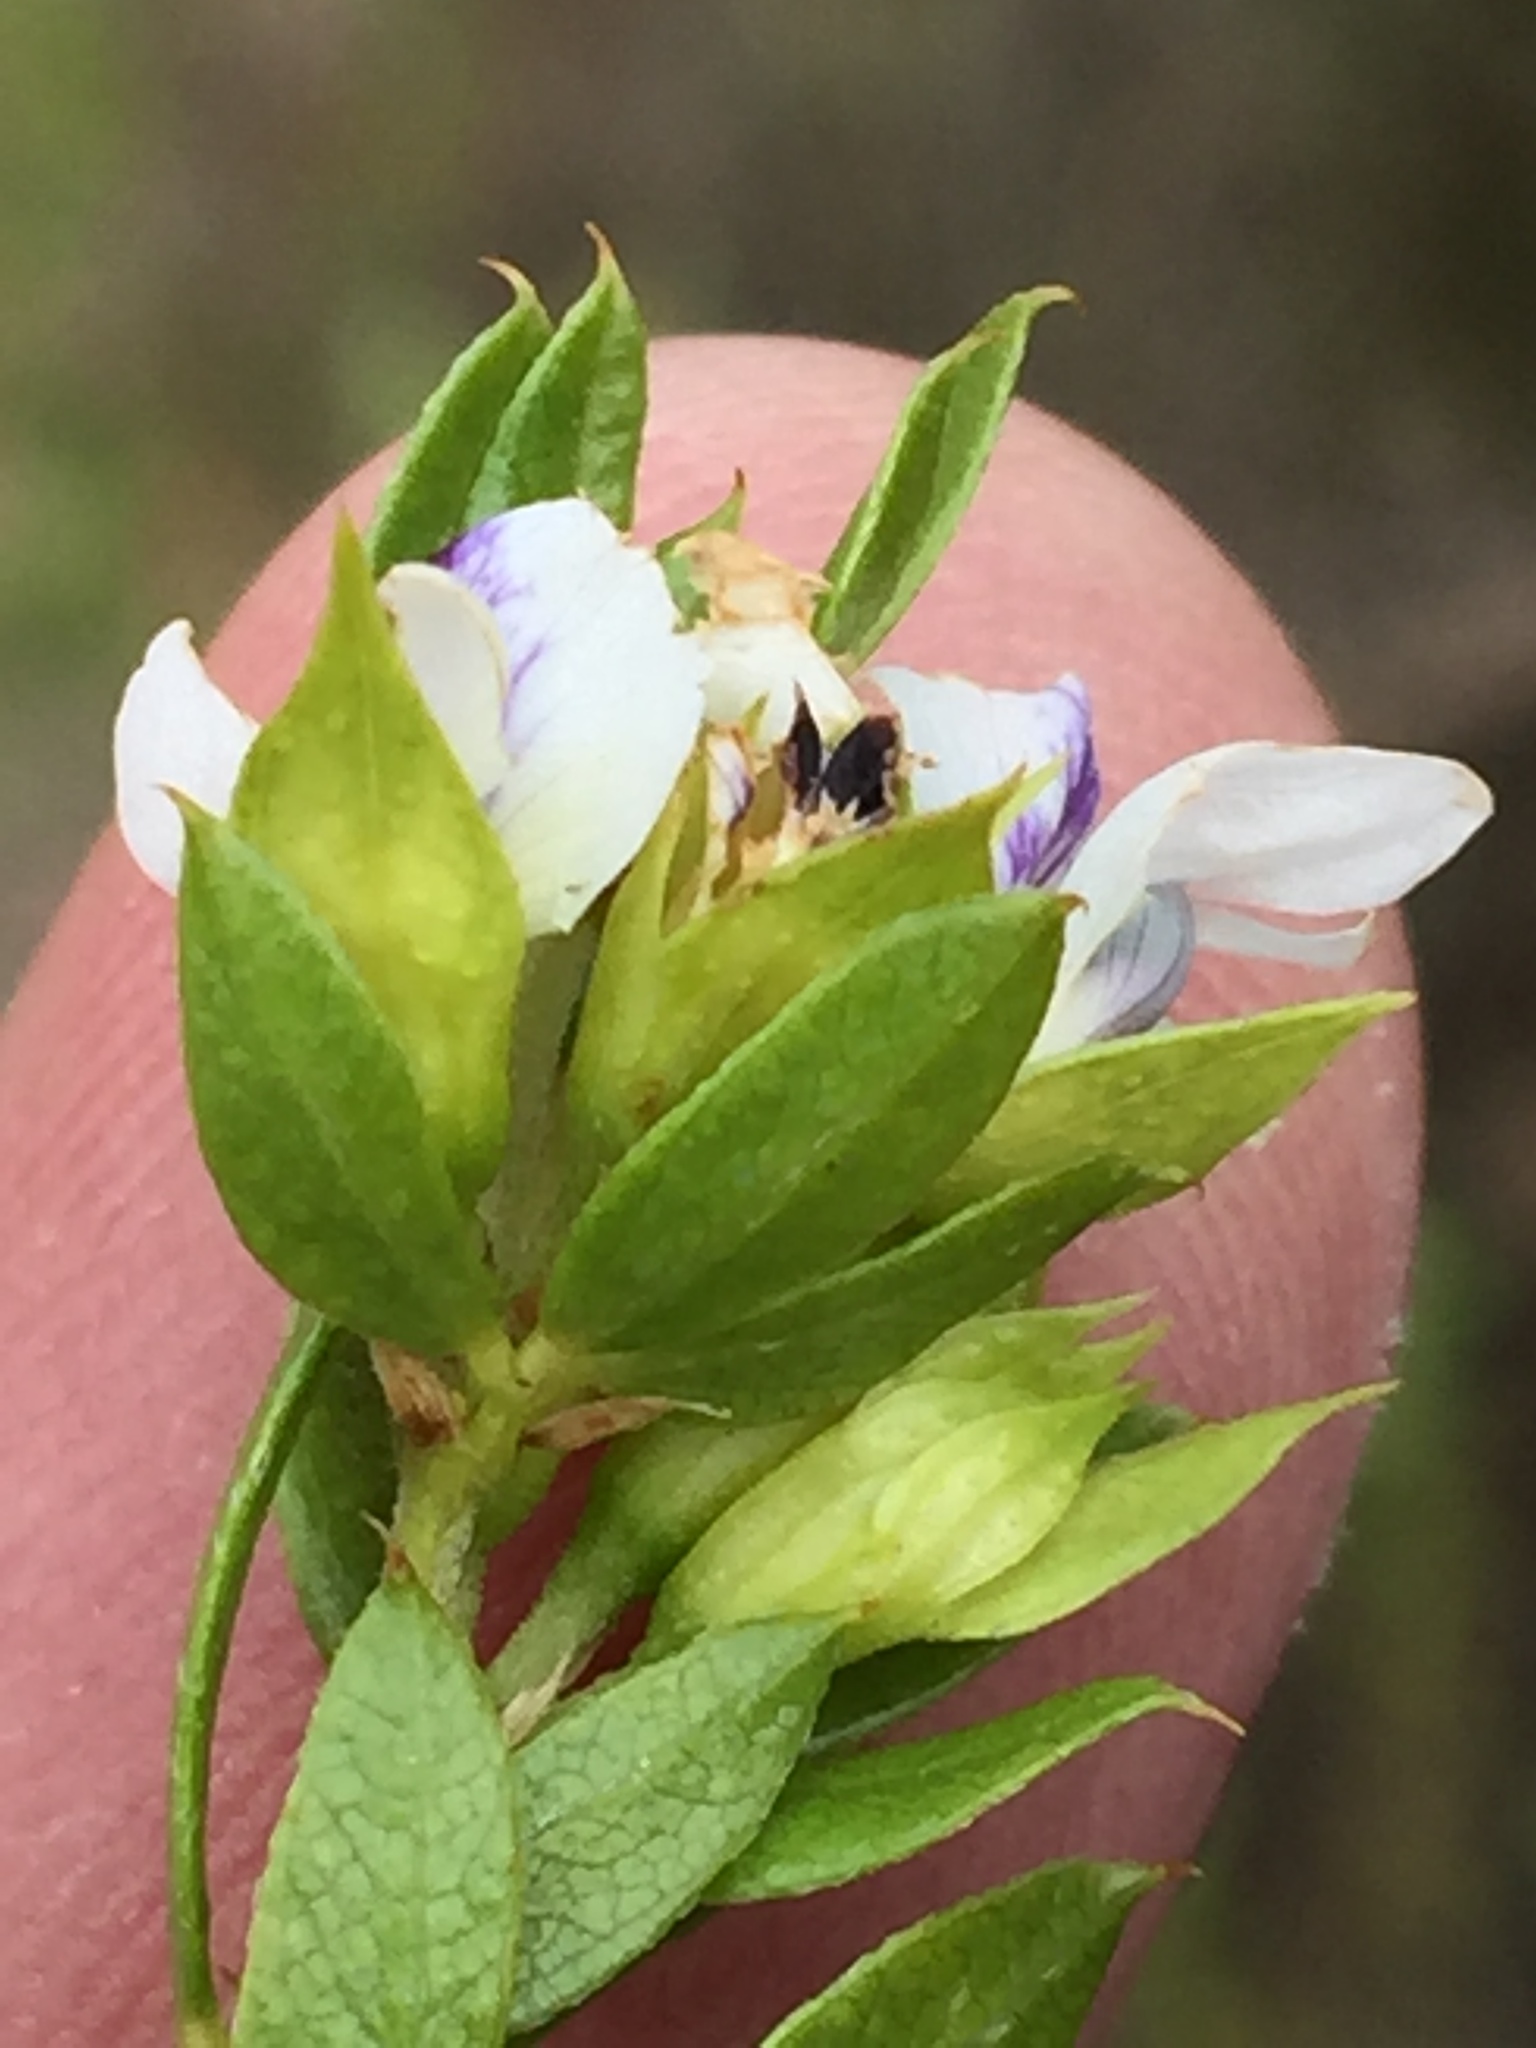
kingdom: Plantae
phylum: Tracheophyta
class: Magnoliopsida
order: Fabales
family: Fabaceae
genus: Psoralea
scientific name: Psoralea heterosepala
